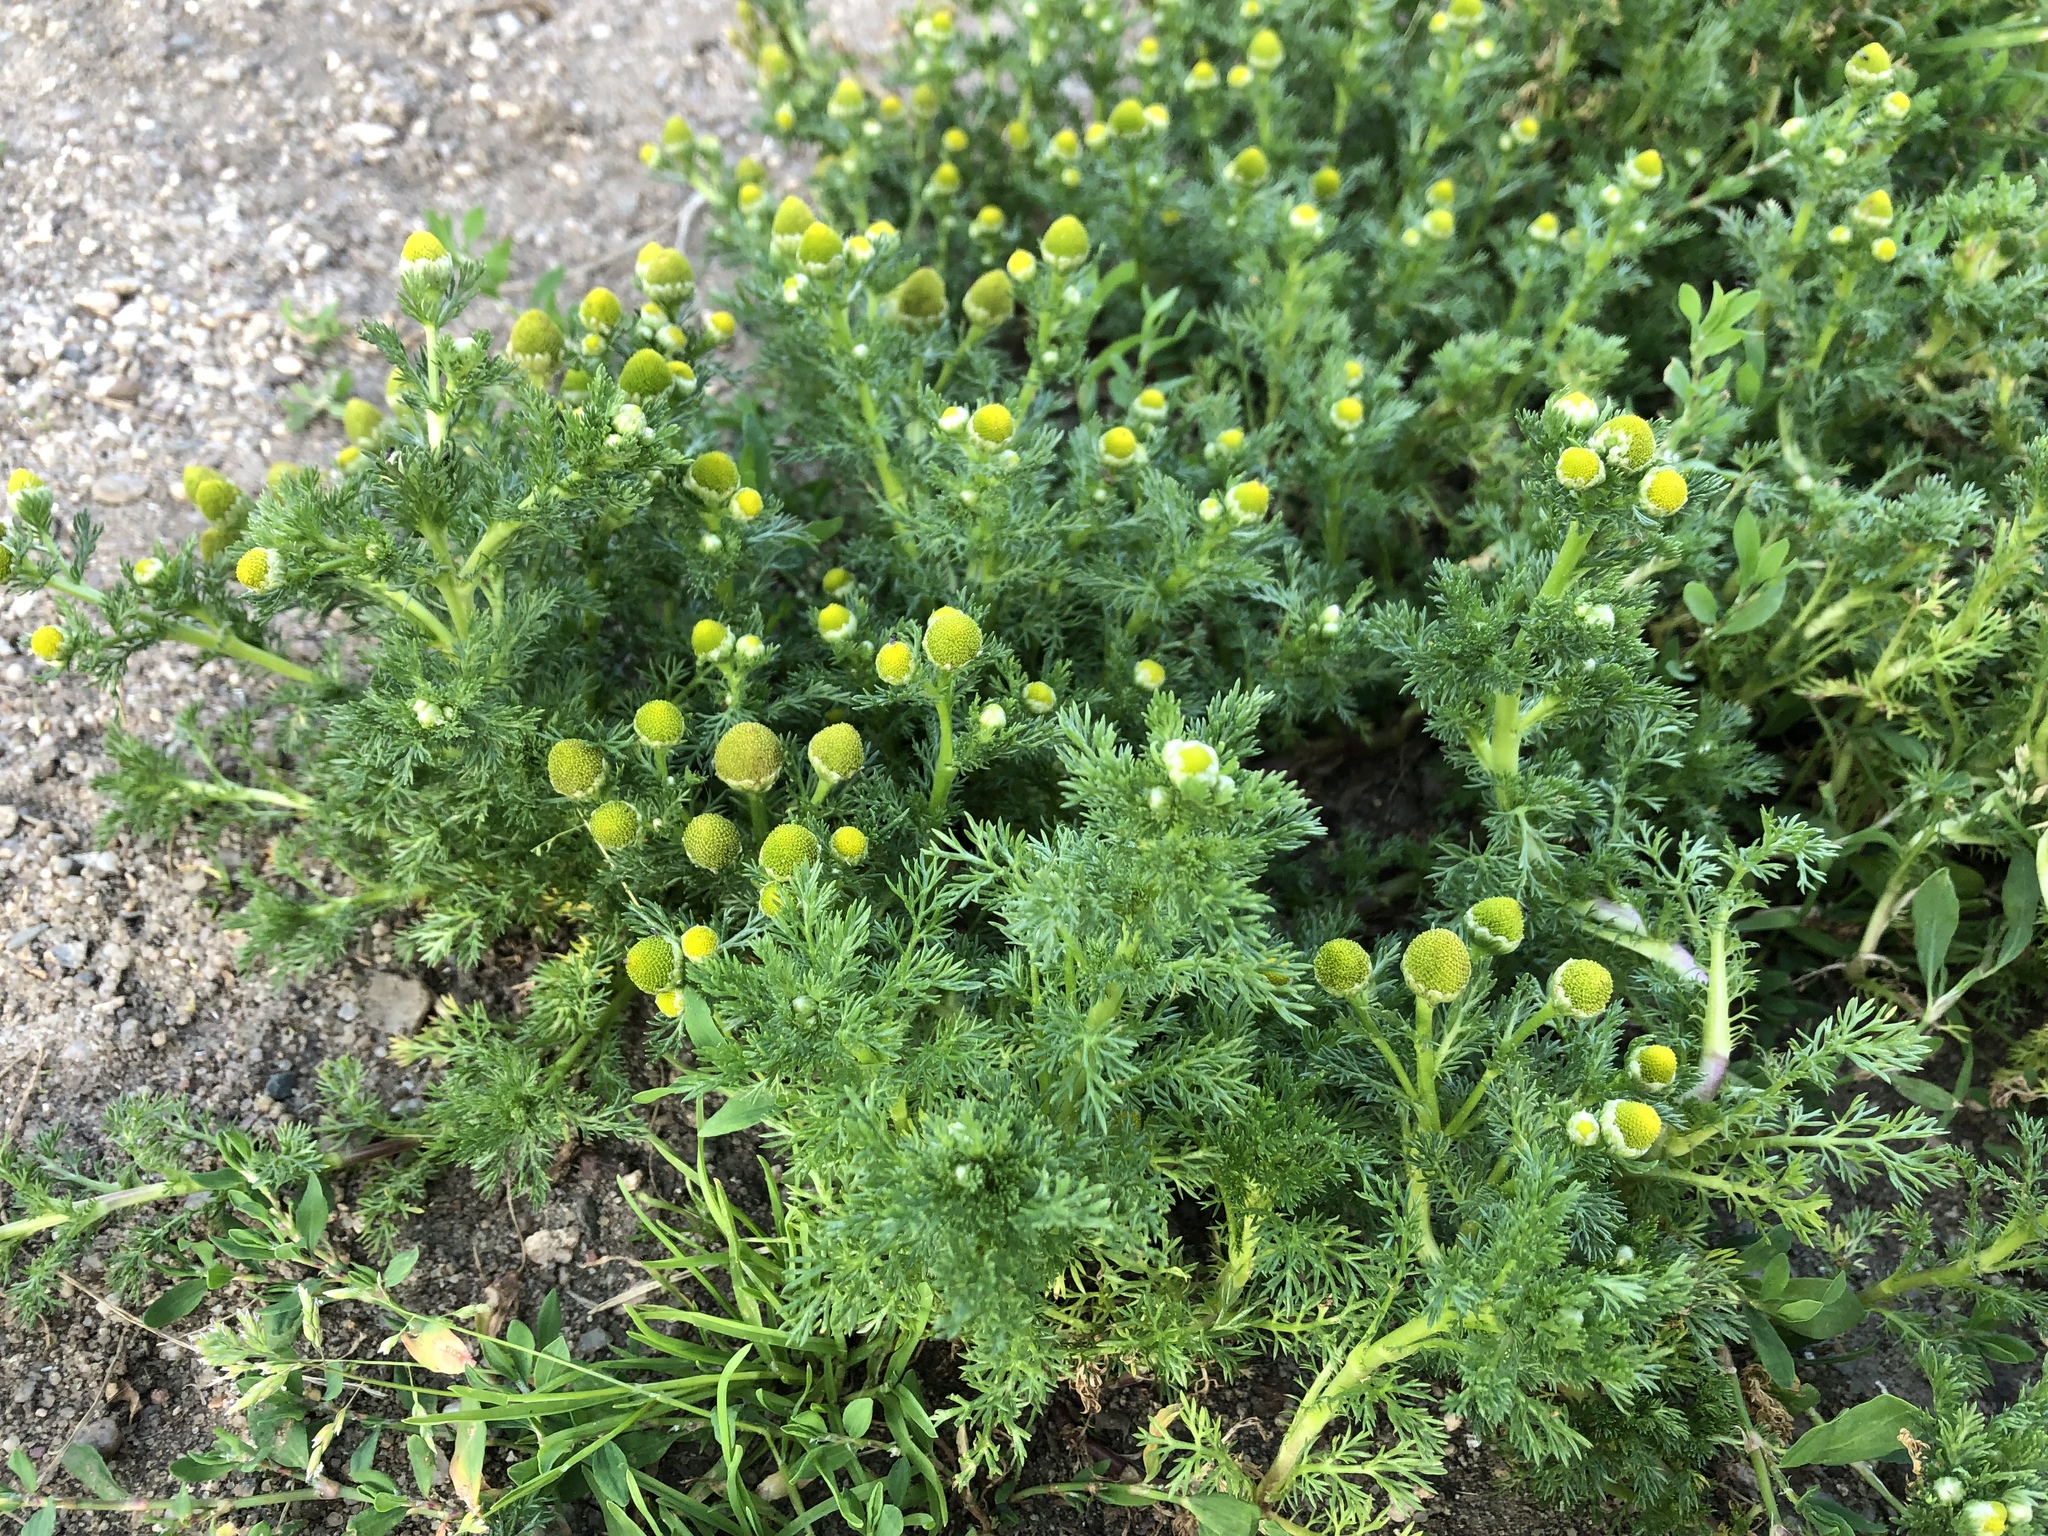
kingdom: Plantae
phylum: Tracheophyta
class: Magnoliopsida
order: Asterales
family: Asteraceae
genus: Matricaria
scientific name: Matricaria discoidea
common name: Disc mayweed
